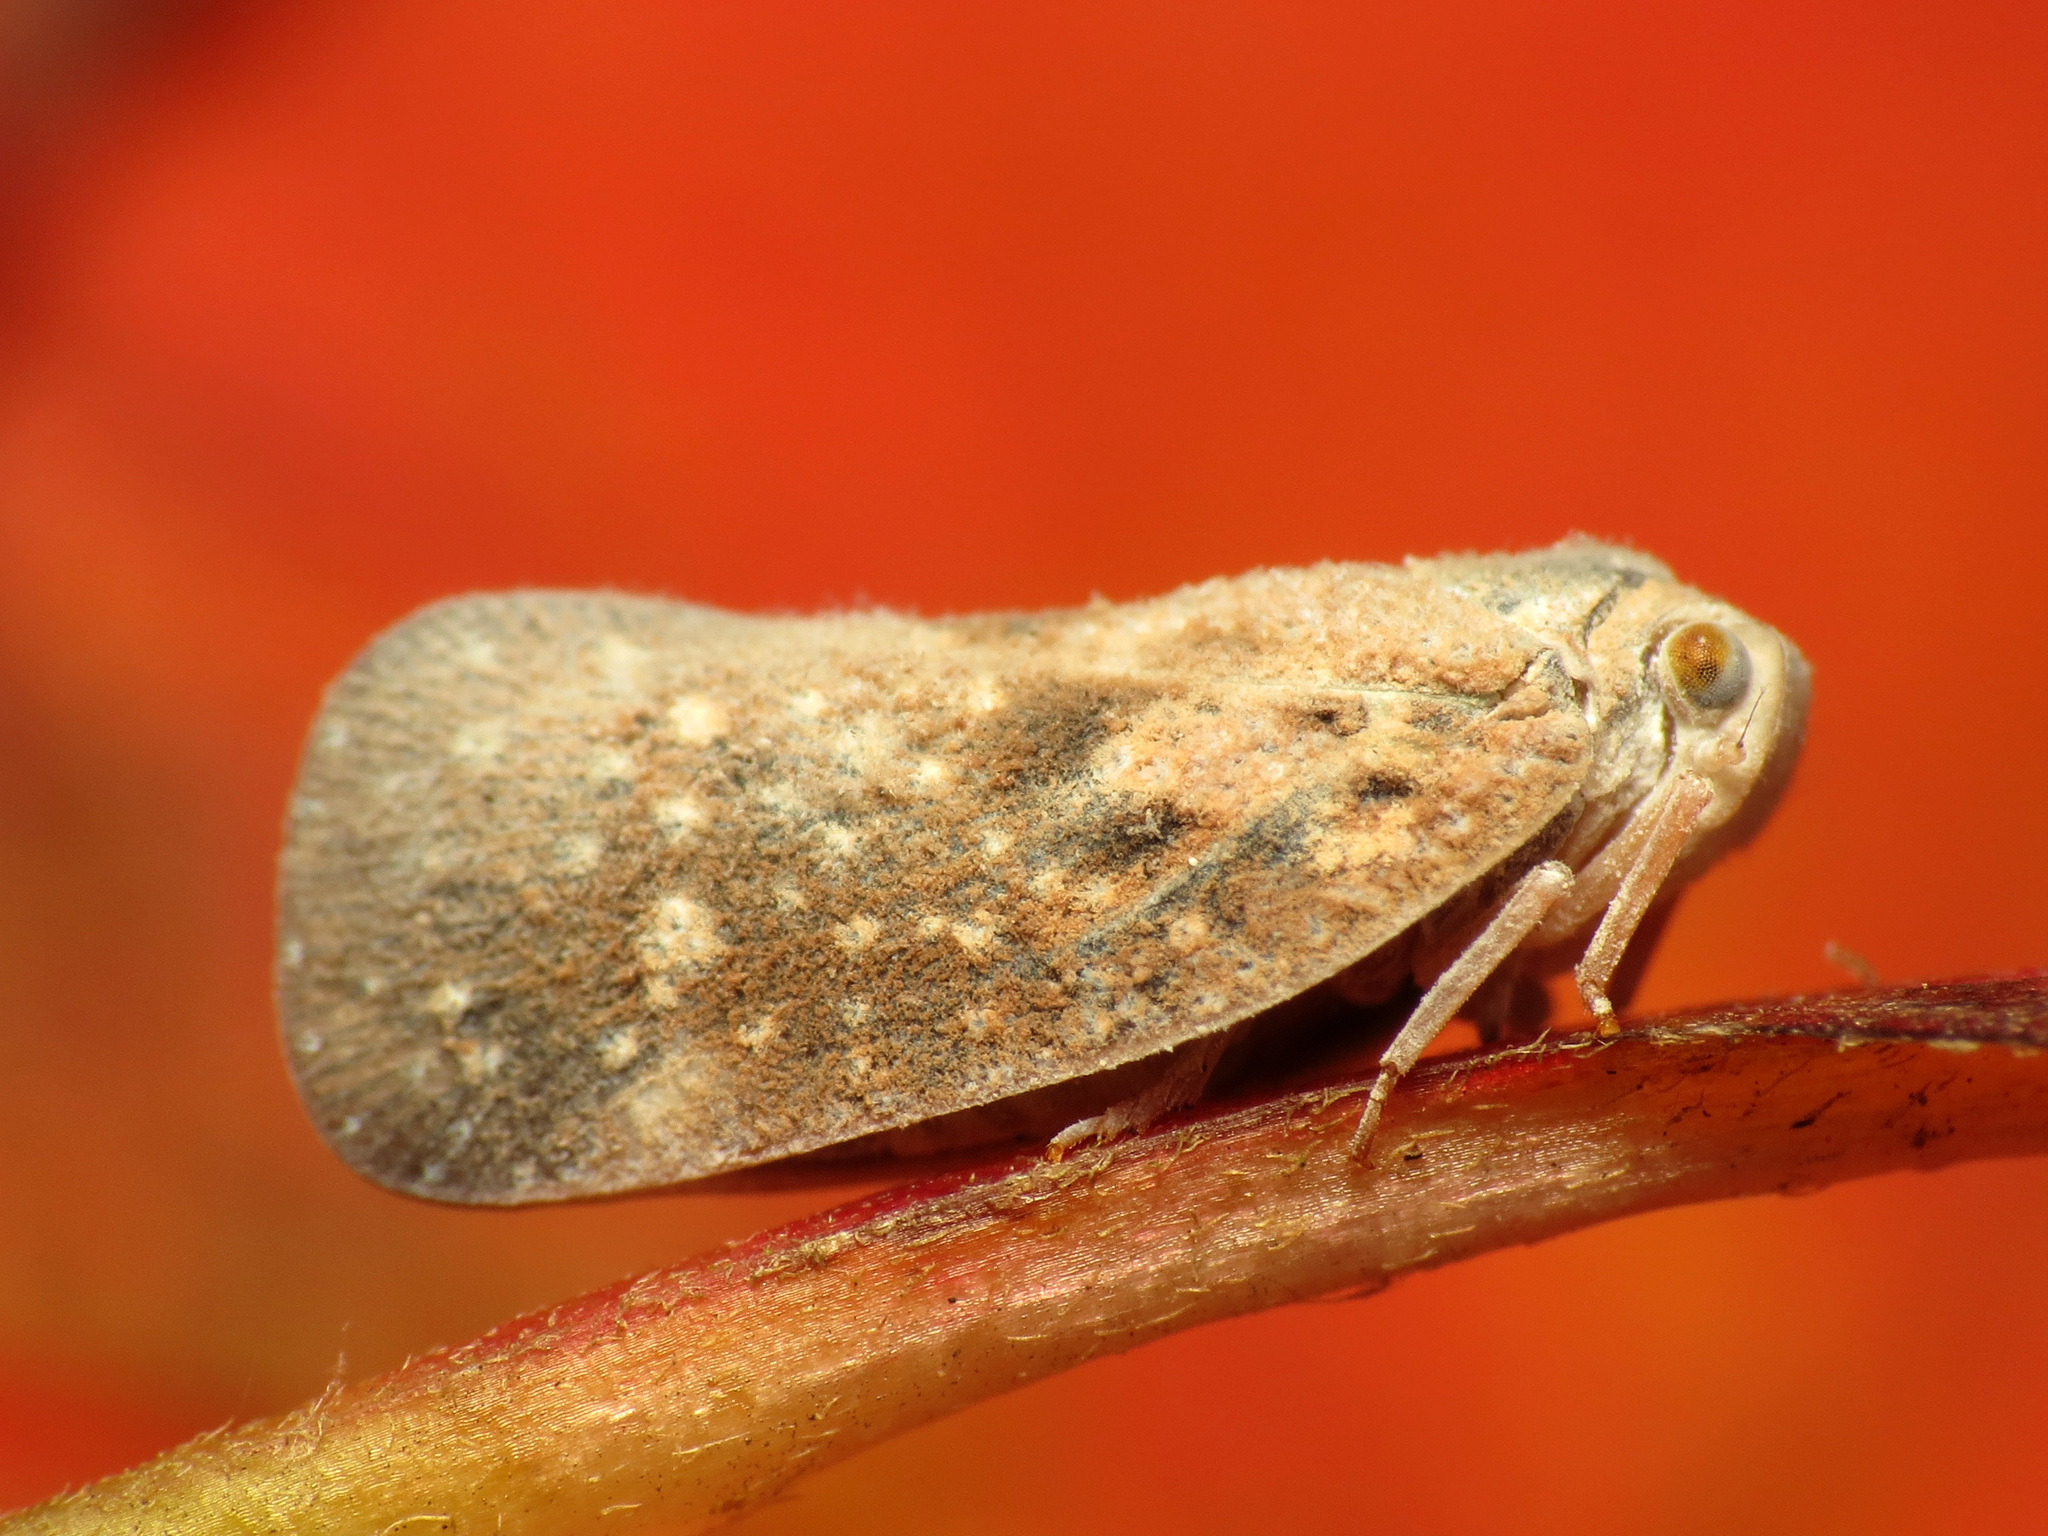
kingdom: Animalia
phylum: Arthropoda
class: Insecta
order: Hemiptera
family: Flatidae
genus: Metcalfa
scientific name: Metcalfa pruinosa
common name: Citrus flatid planthopper
